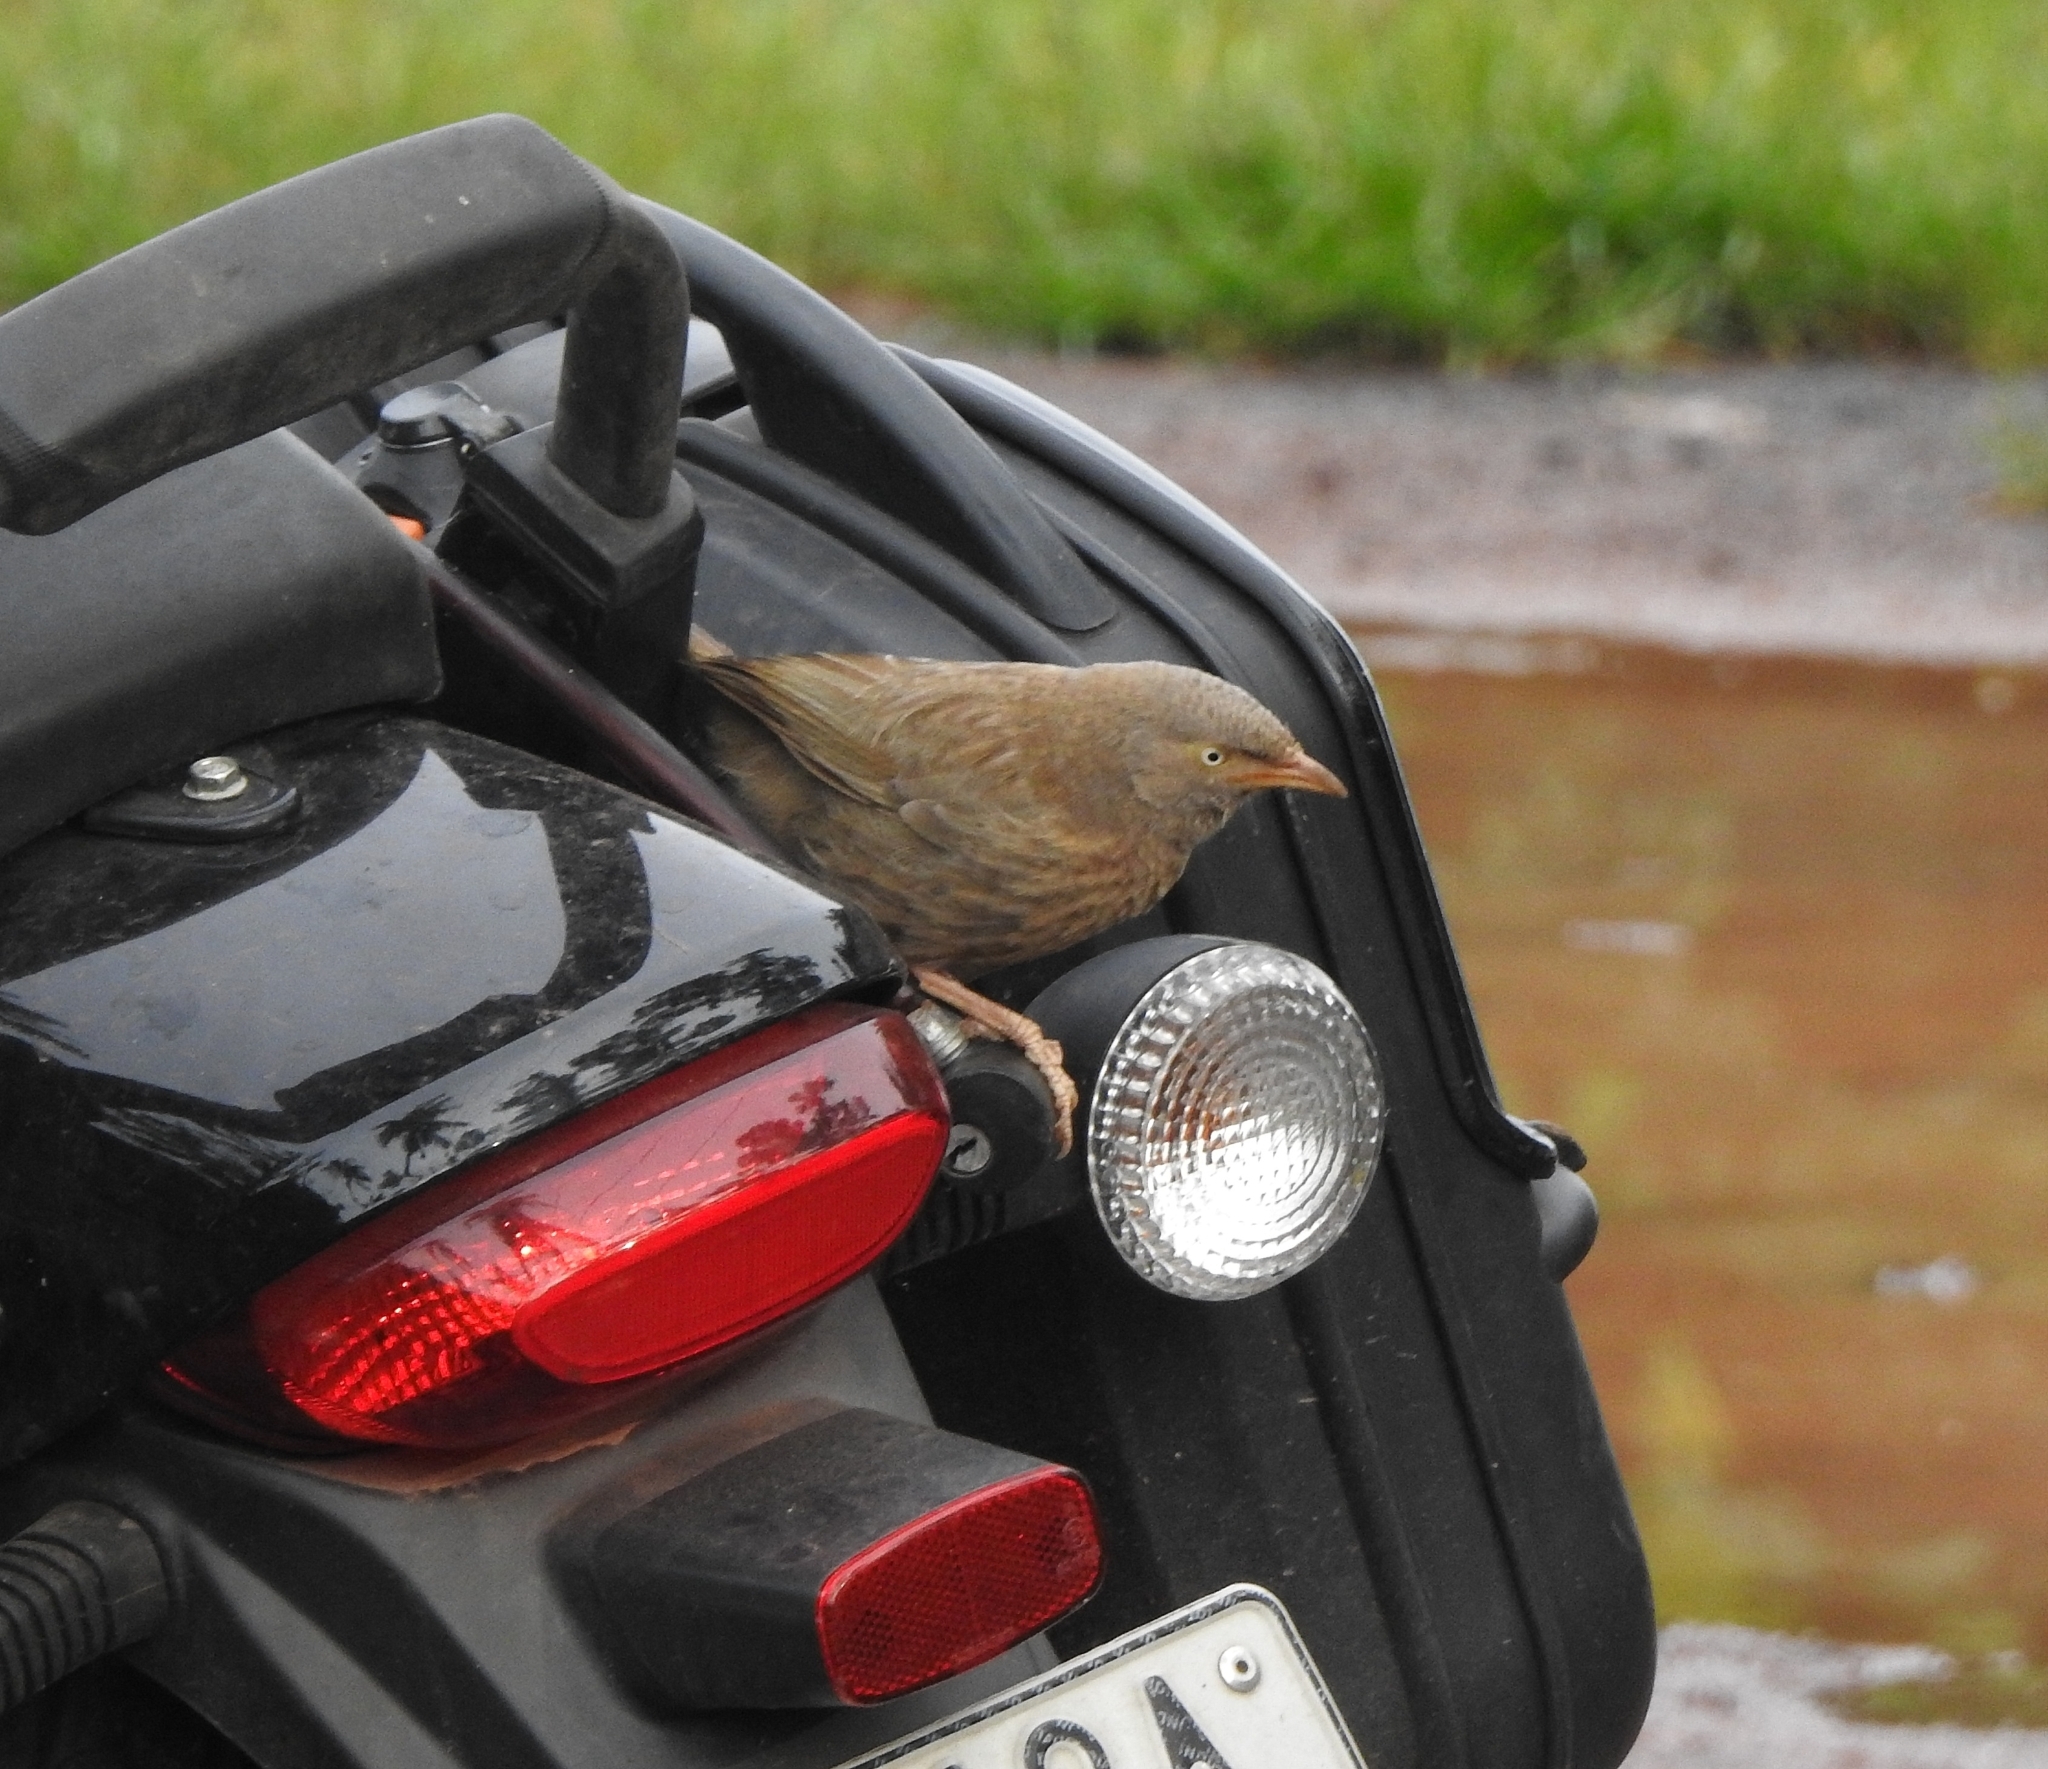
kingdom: Animalia
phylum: Chordata
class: Aves
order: Passeriformes
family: Leiothrichidae
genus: Turdoides
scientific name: Turdoides striata
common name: Jungle babbler
